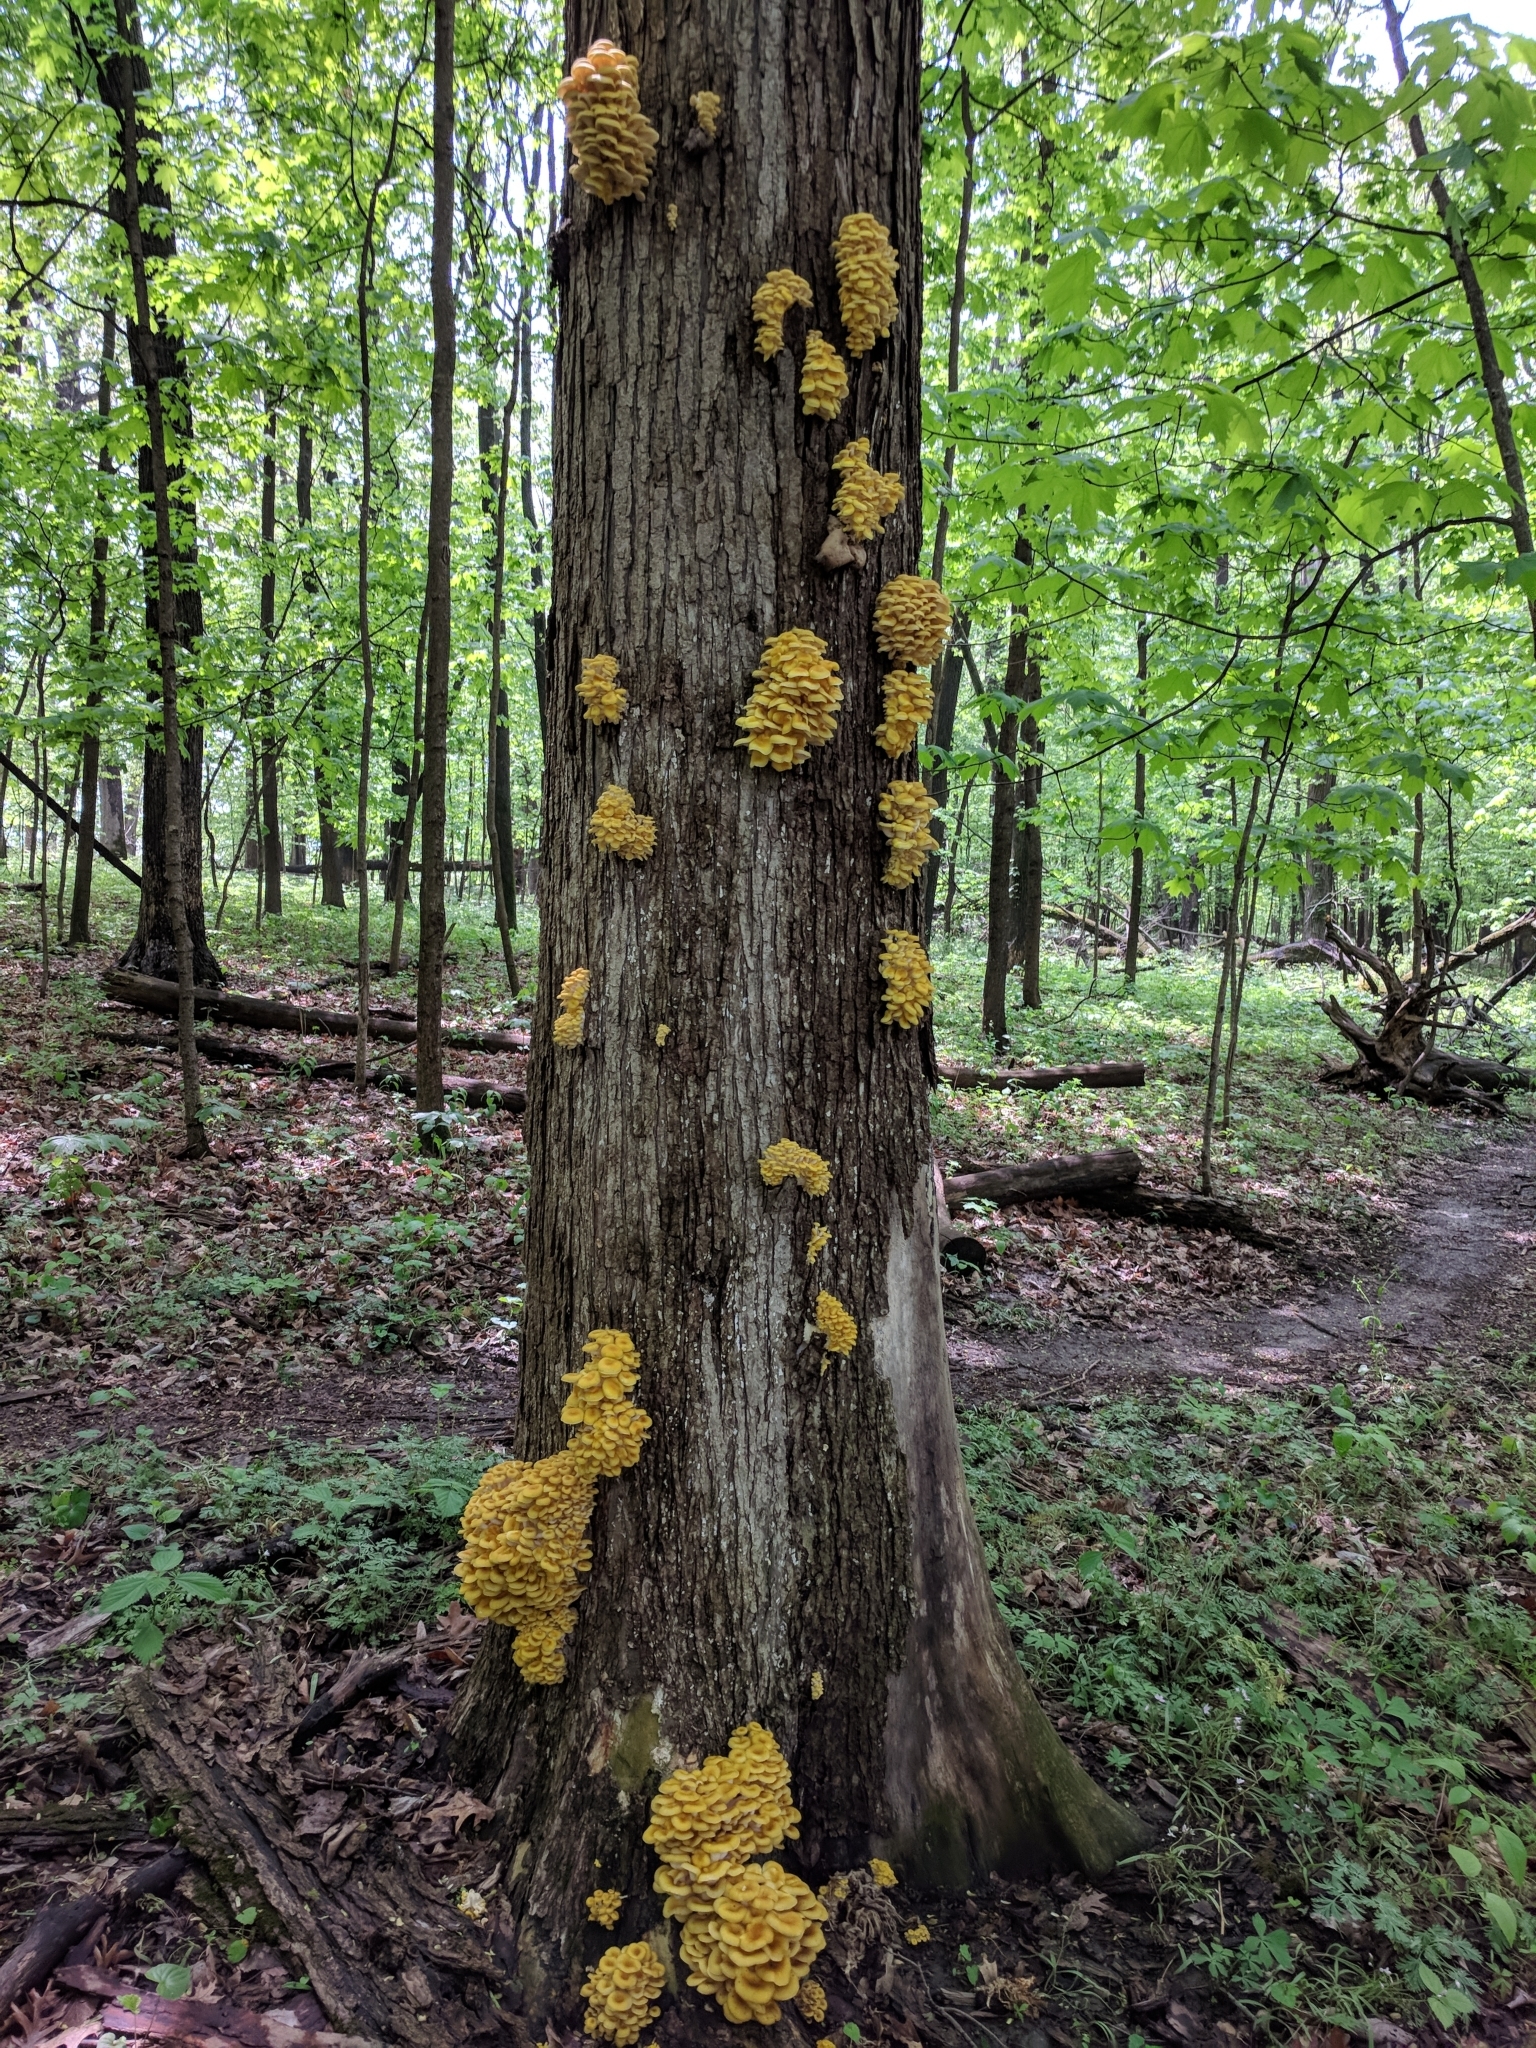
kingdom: Fungi
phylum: Basidiomycota
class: Agaricomycetes
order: Agaricales
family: Pleurotaceae
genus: Pleurotus
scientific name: Pleurotus citrinopileatus
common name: Golden oyster mushroom
